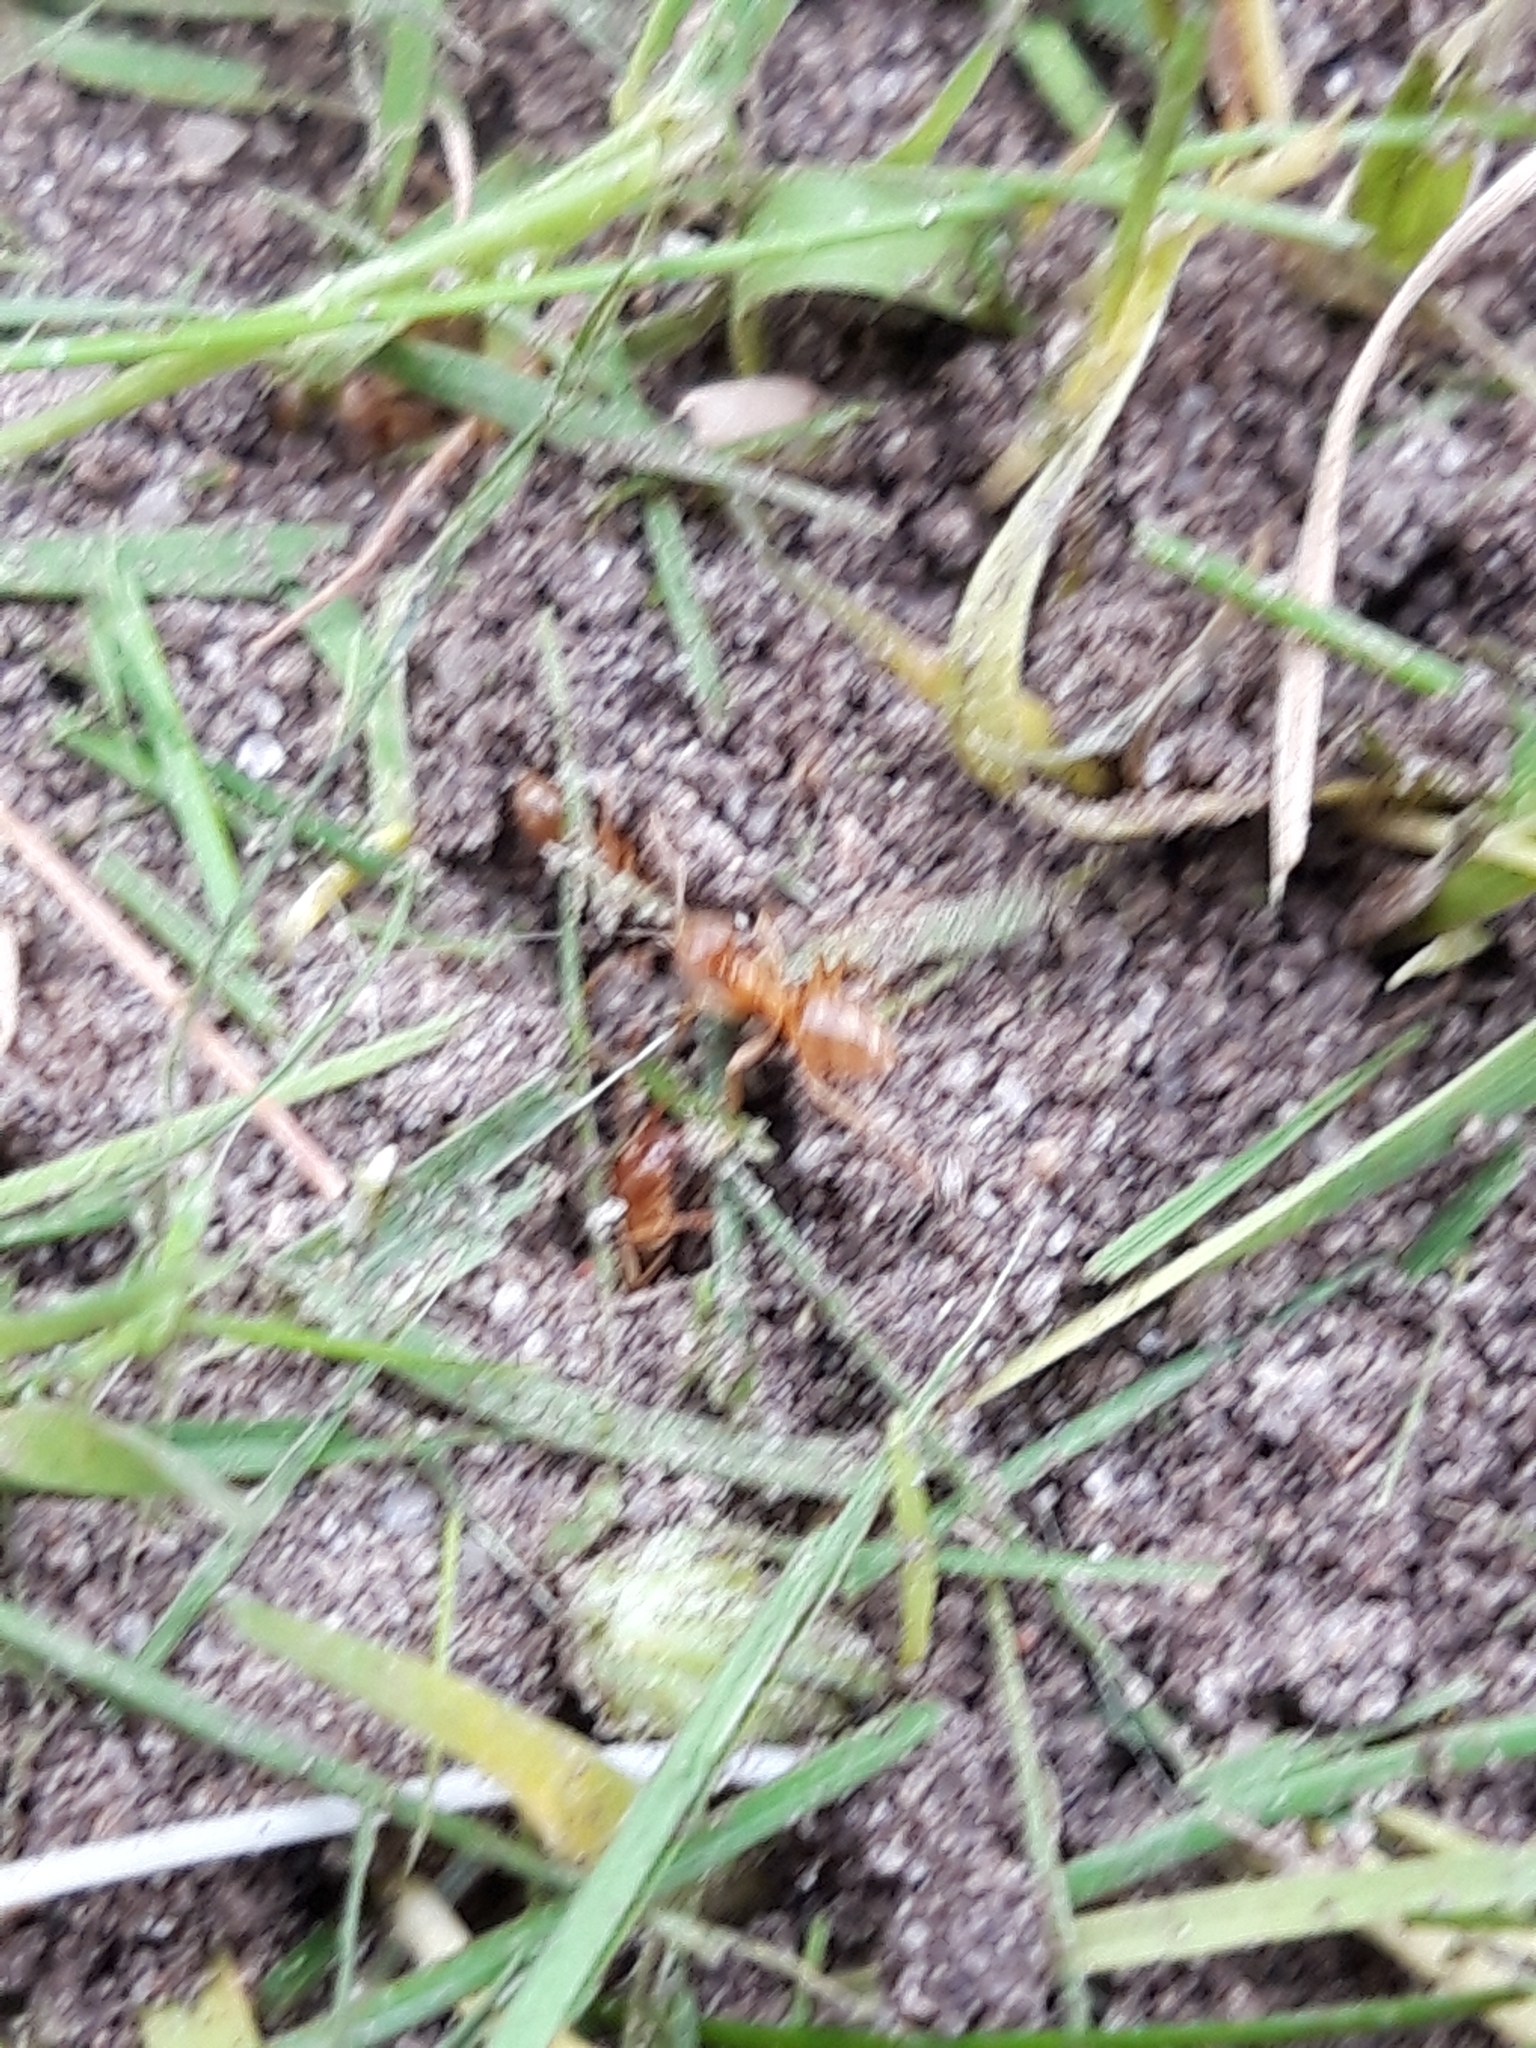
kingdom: Animalia
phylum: Arthropoda
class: Insecta
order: Hymenoptera
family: Formicidae
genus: Lasius
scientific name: Lasius flavus
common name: Blond field ant
